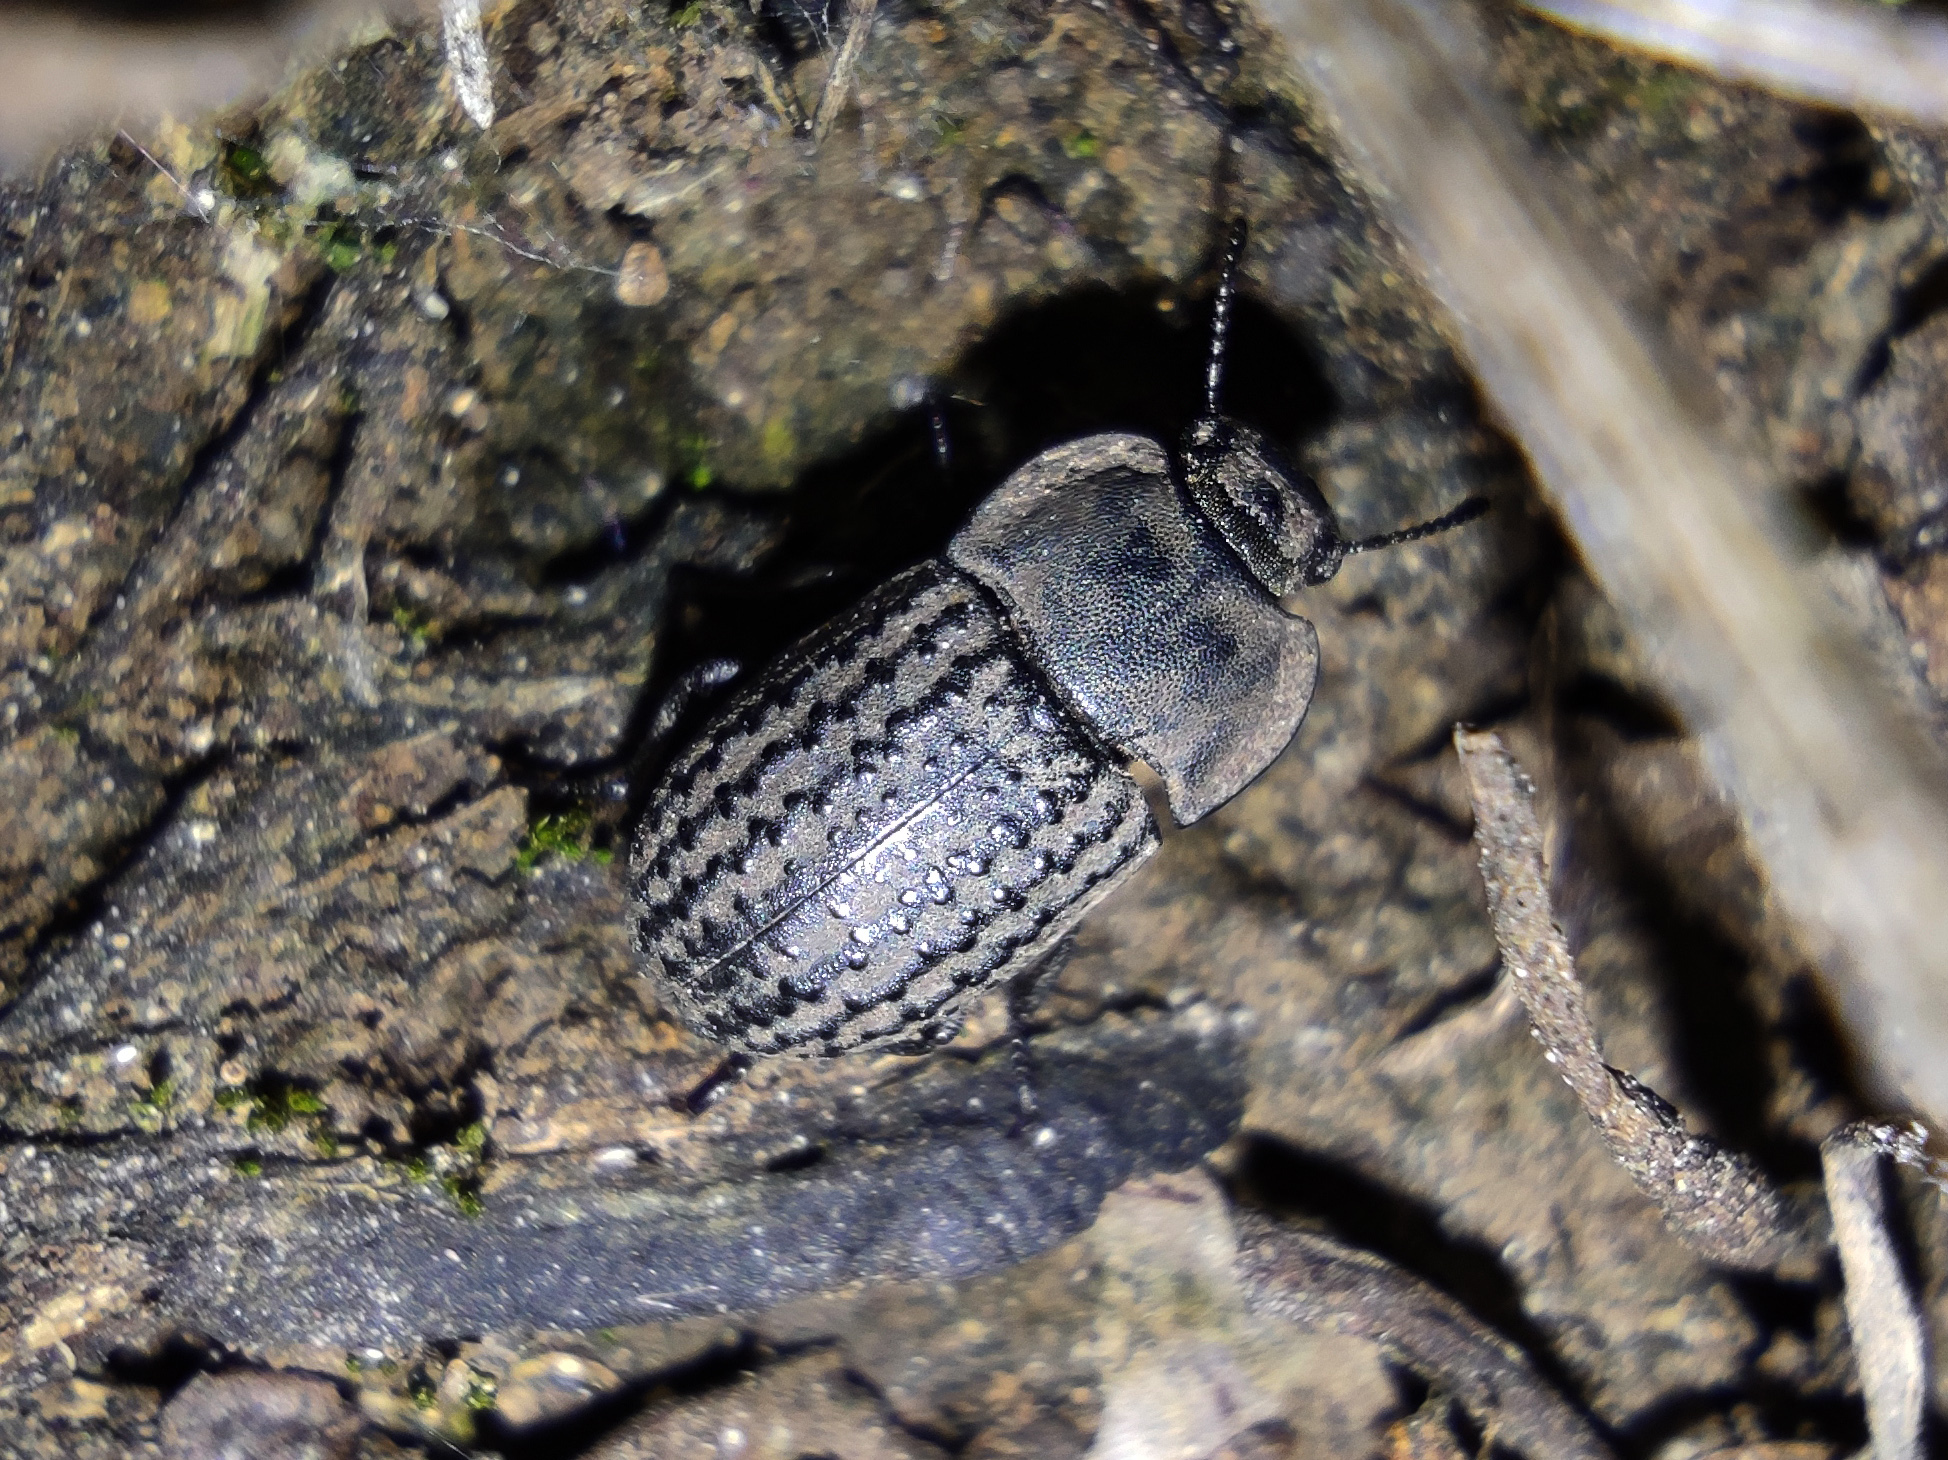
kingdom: Animalia
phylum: Arthropoda
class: Insecta
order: Coleoptera
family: Tenebrionidae
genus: Opatrum
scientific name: Opatrum sabulosum
